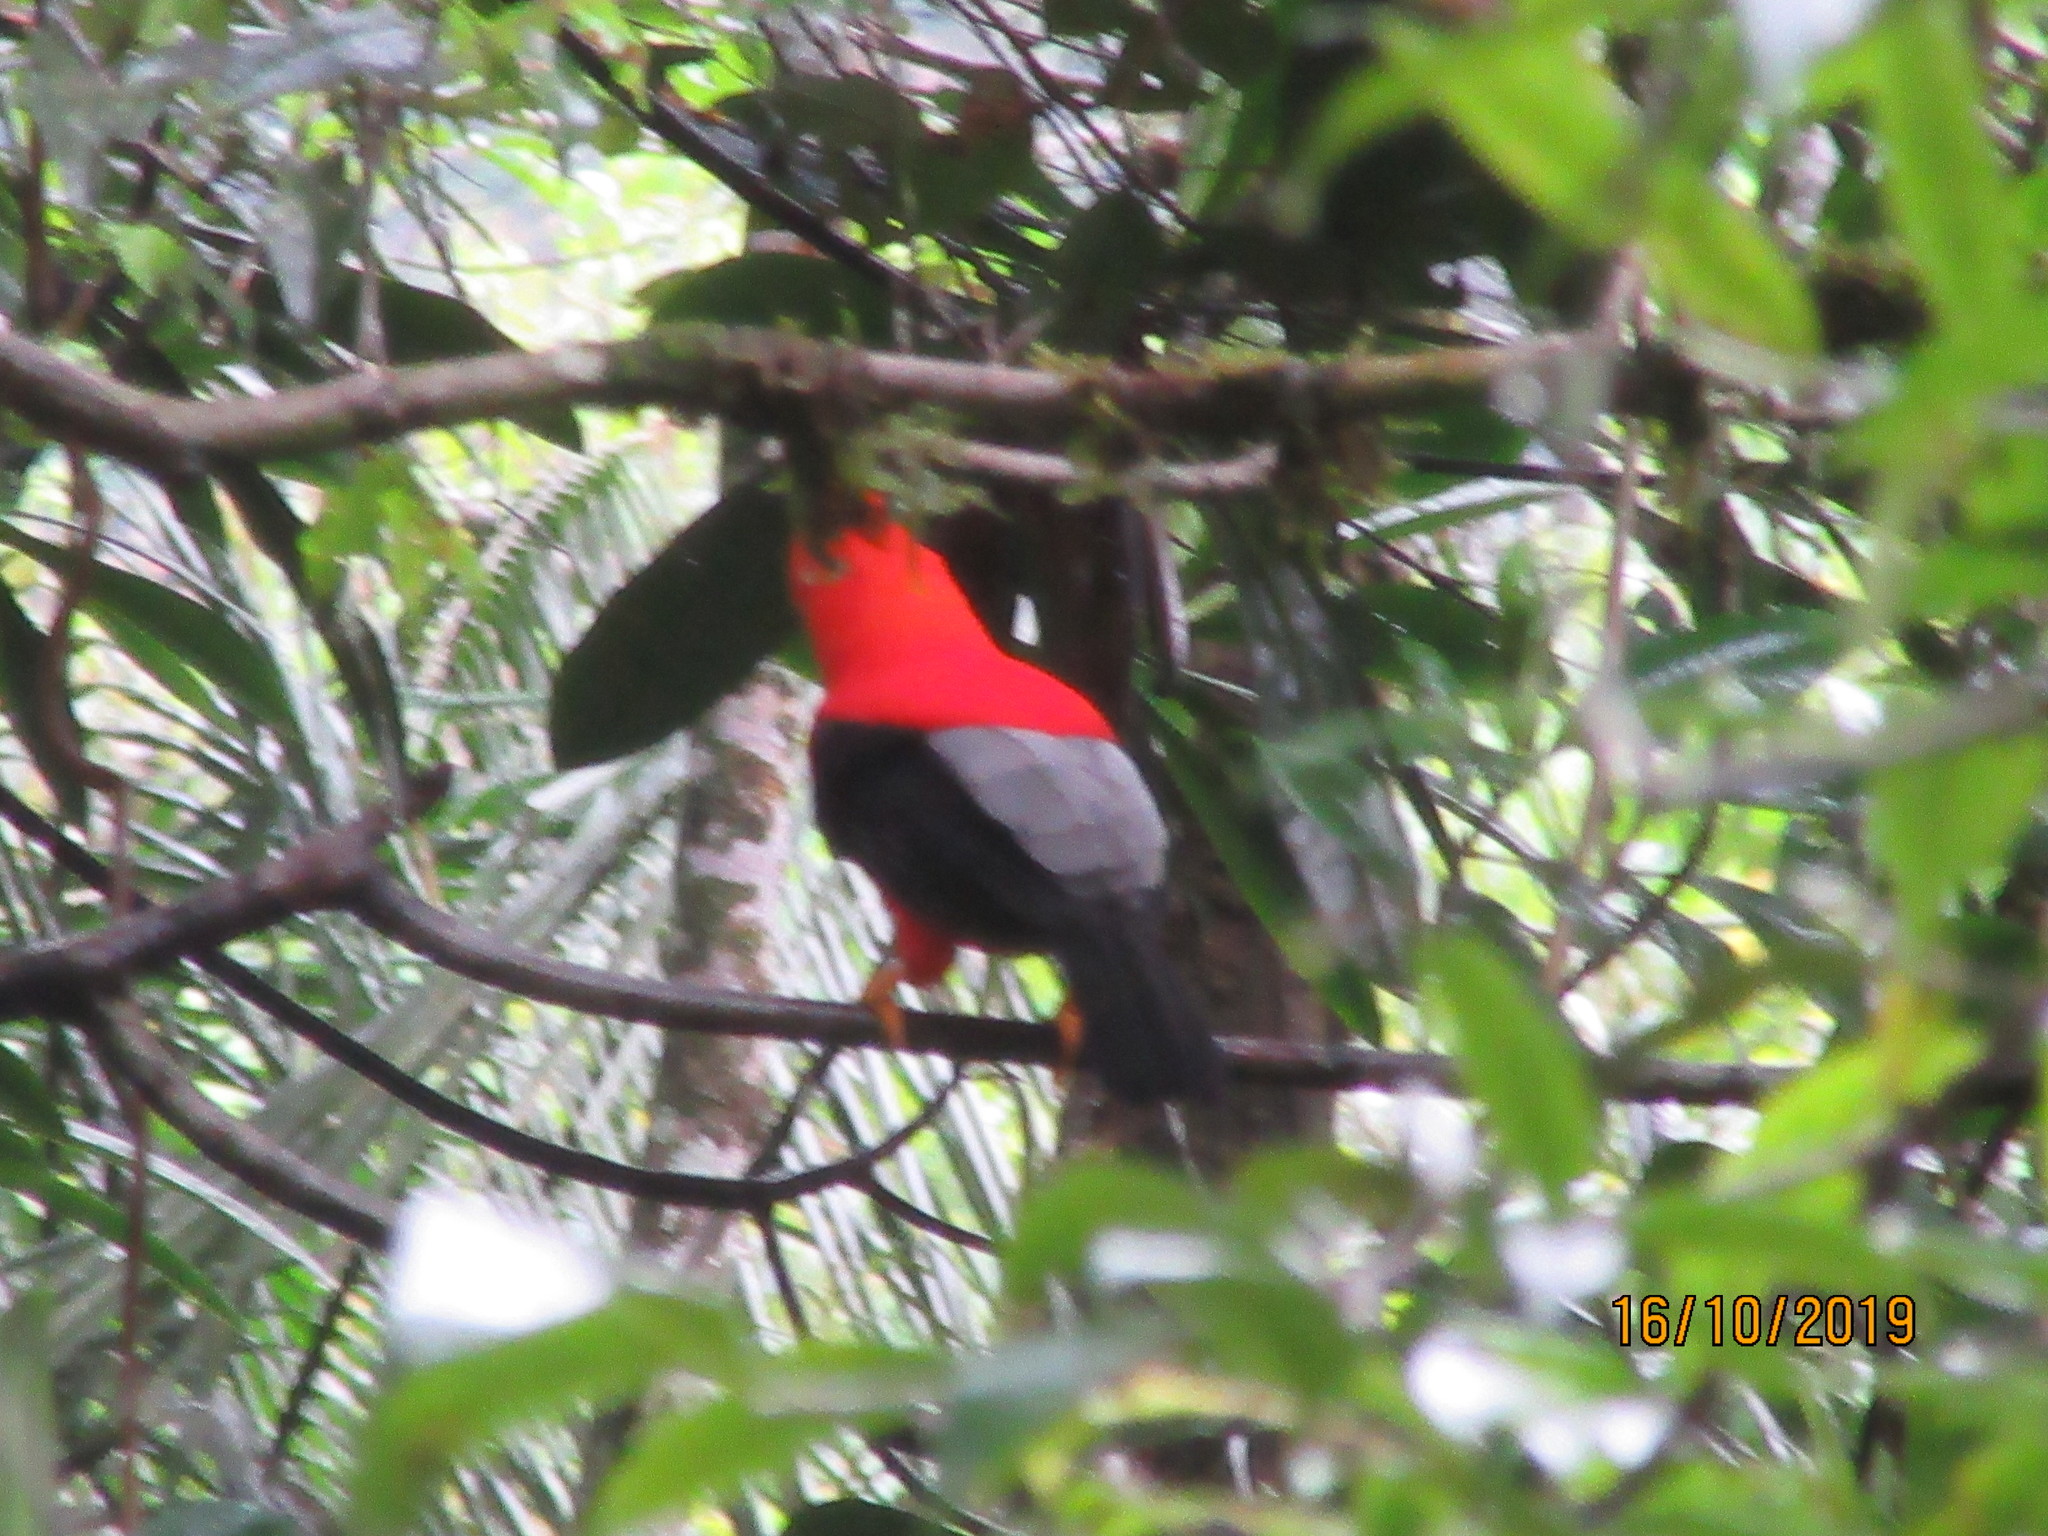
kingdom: Animalia
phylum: Chordata
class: Aves
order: Passeriformes
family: Cotingidae
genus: Rupicola
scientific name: Rupicola peruvianus
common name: Andean cock-of-the-rock
